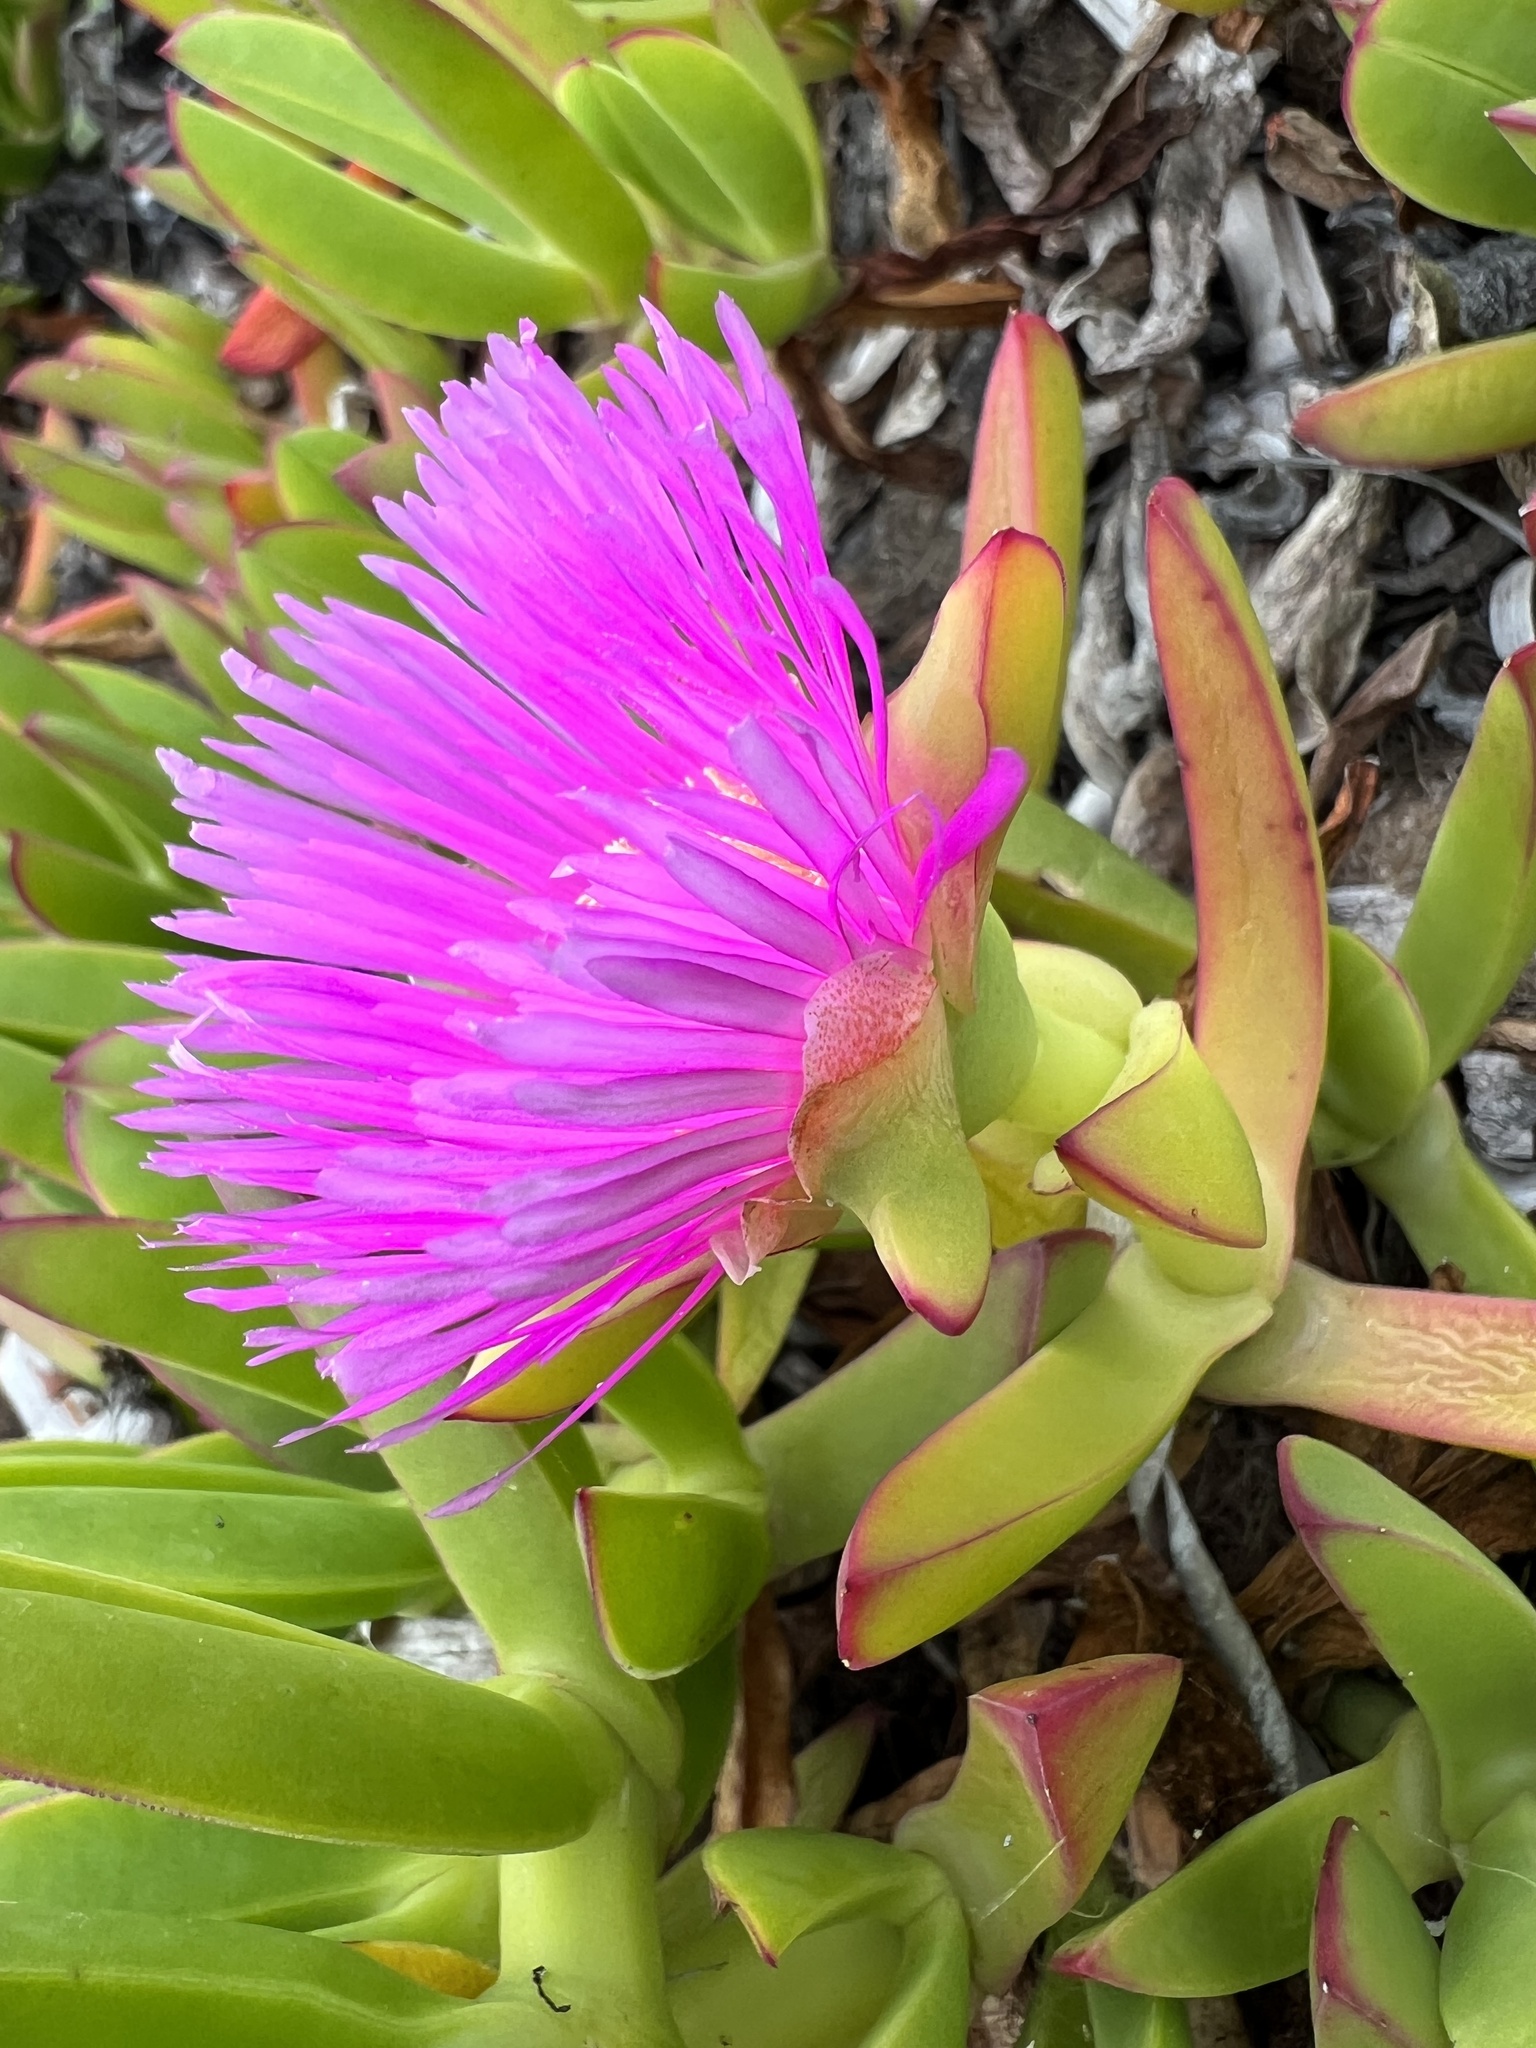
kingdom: Plantae
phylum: Tracheophyta
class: Magnoliopsida
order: Caryophyllales
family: Aizoaceae
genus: Carpobrotus
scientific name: Carpobrotus acinaciformis
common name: Sally-my-handsome
